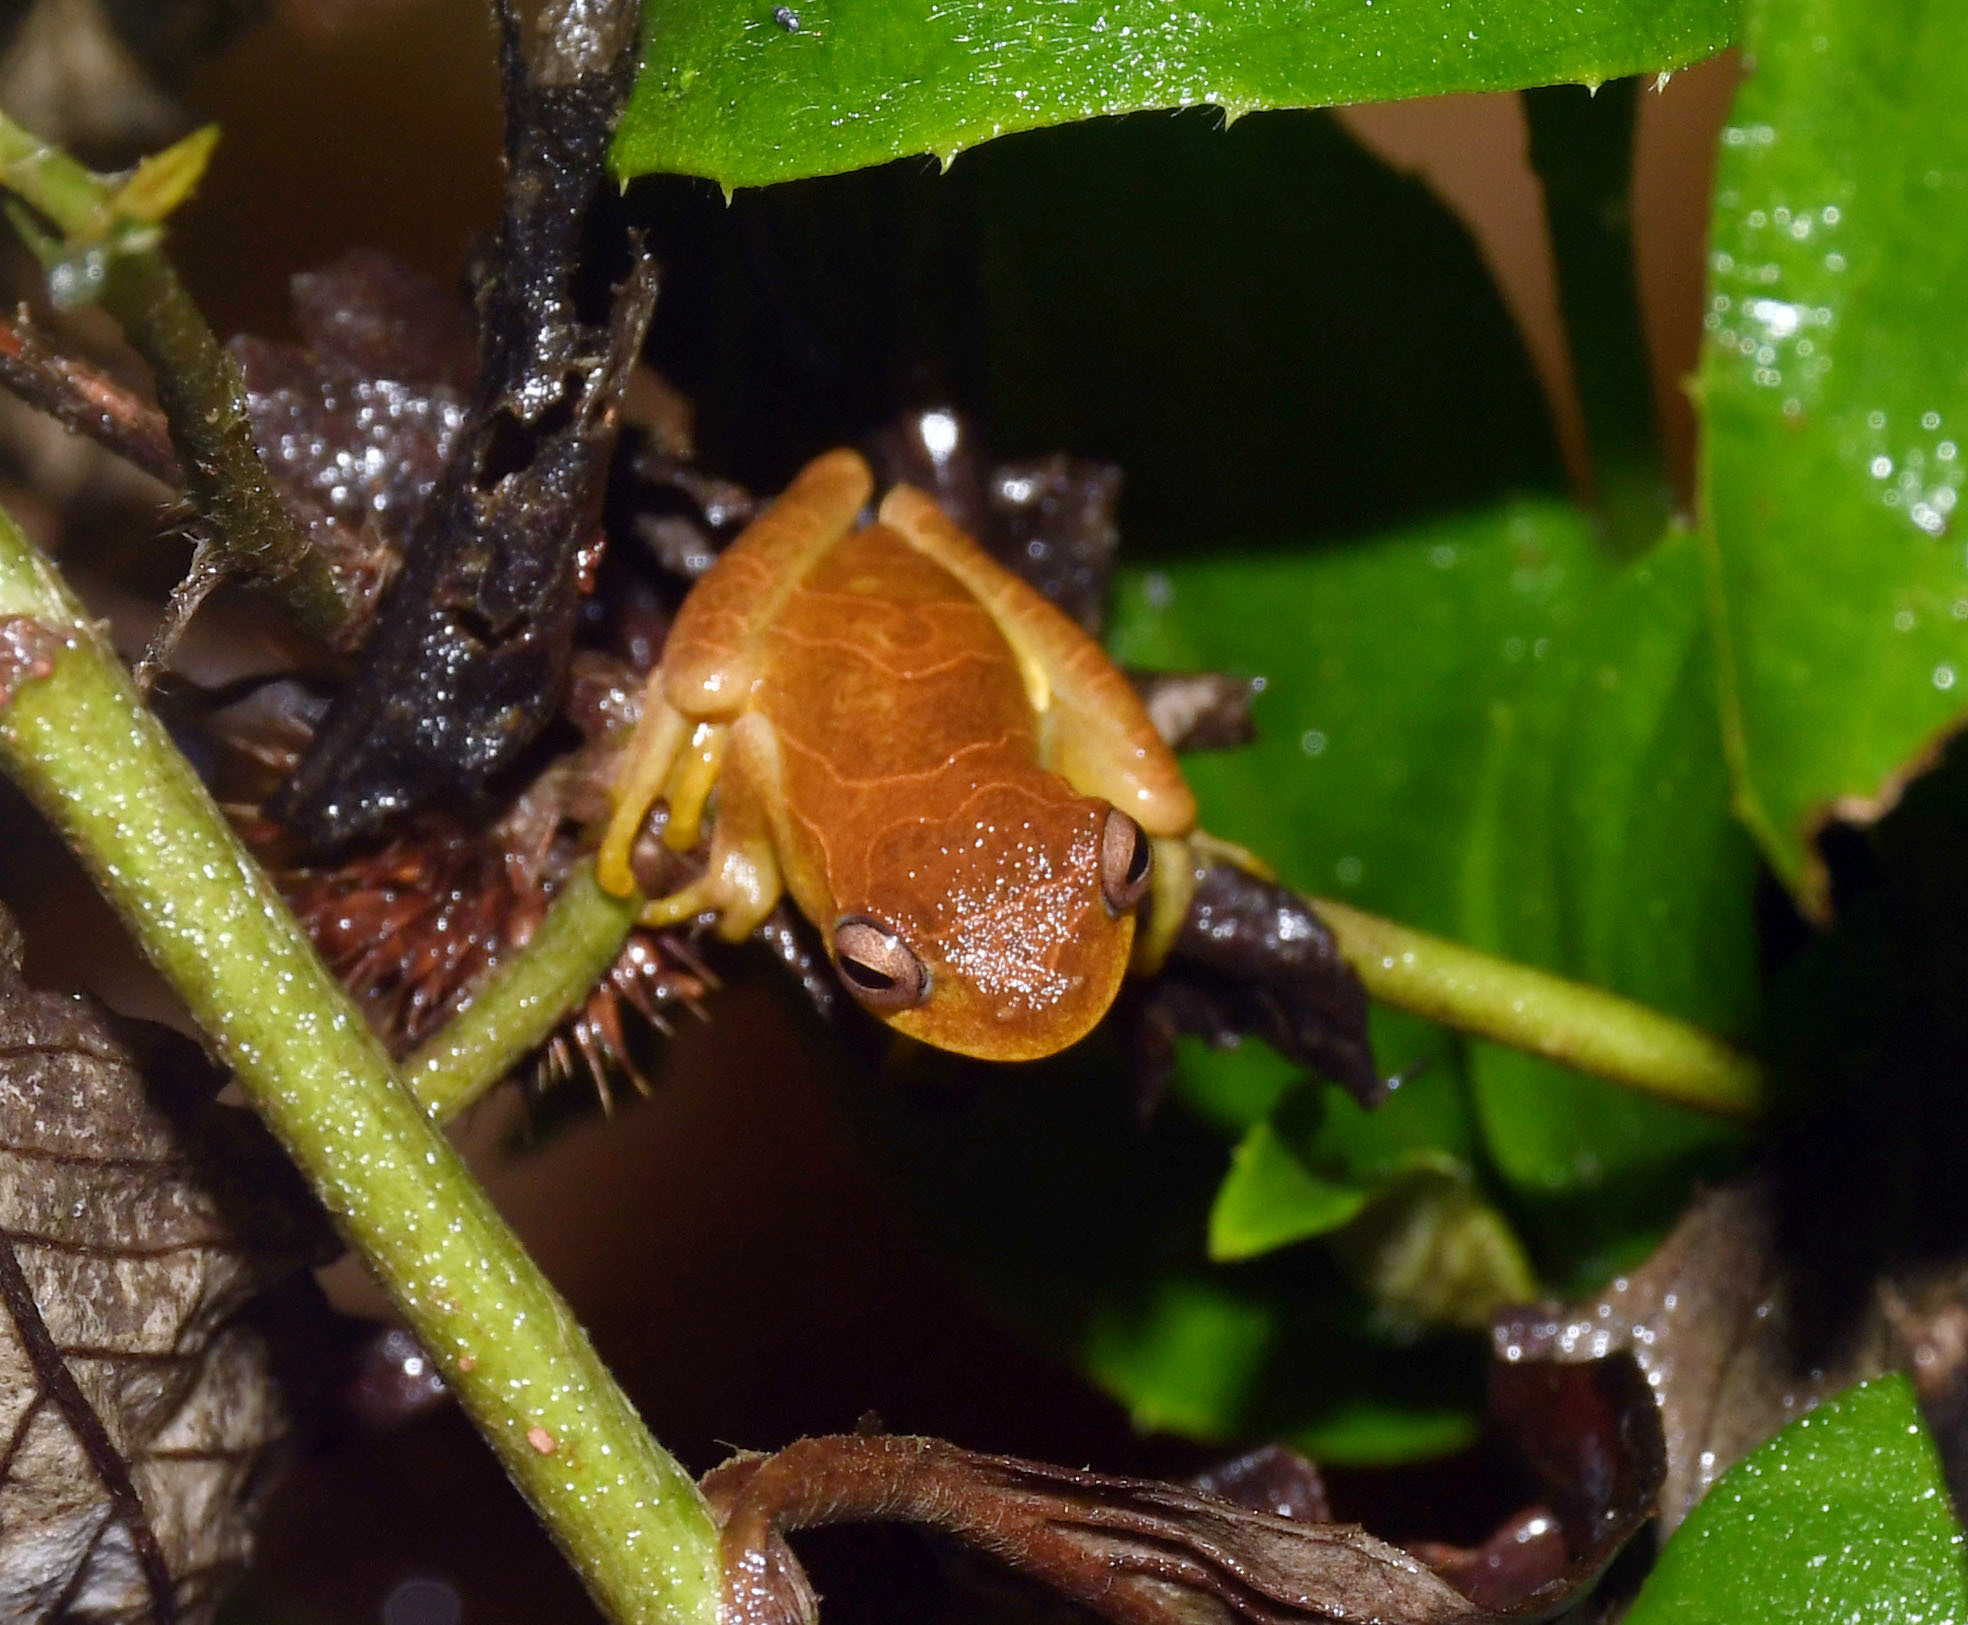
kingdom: Animalia
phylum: Chordata
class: Amphibia
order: Anura
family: Hylidae
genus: Dendropsophus
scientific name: Dendropsophus minutus
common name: Lesser treefrog
